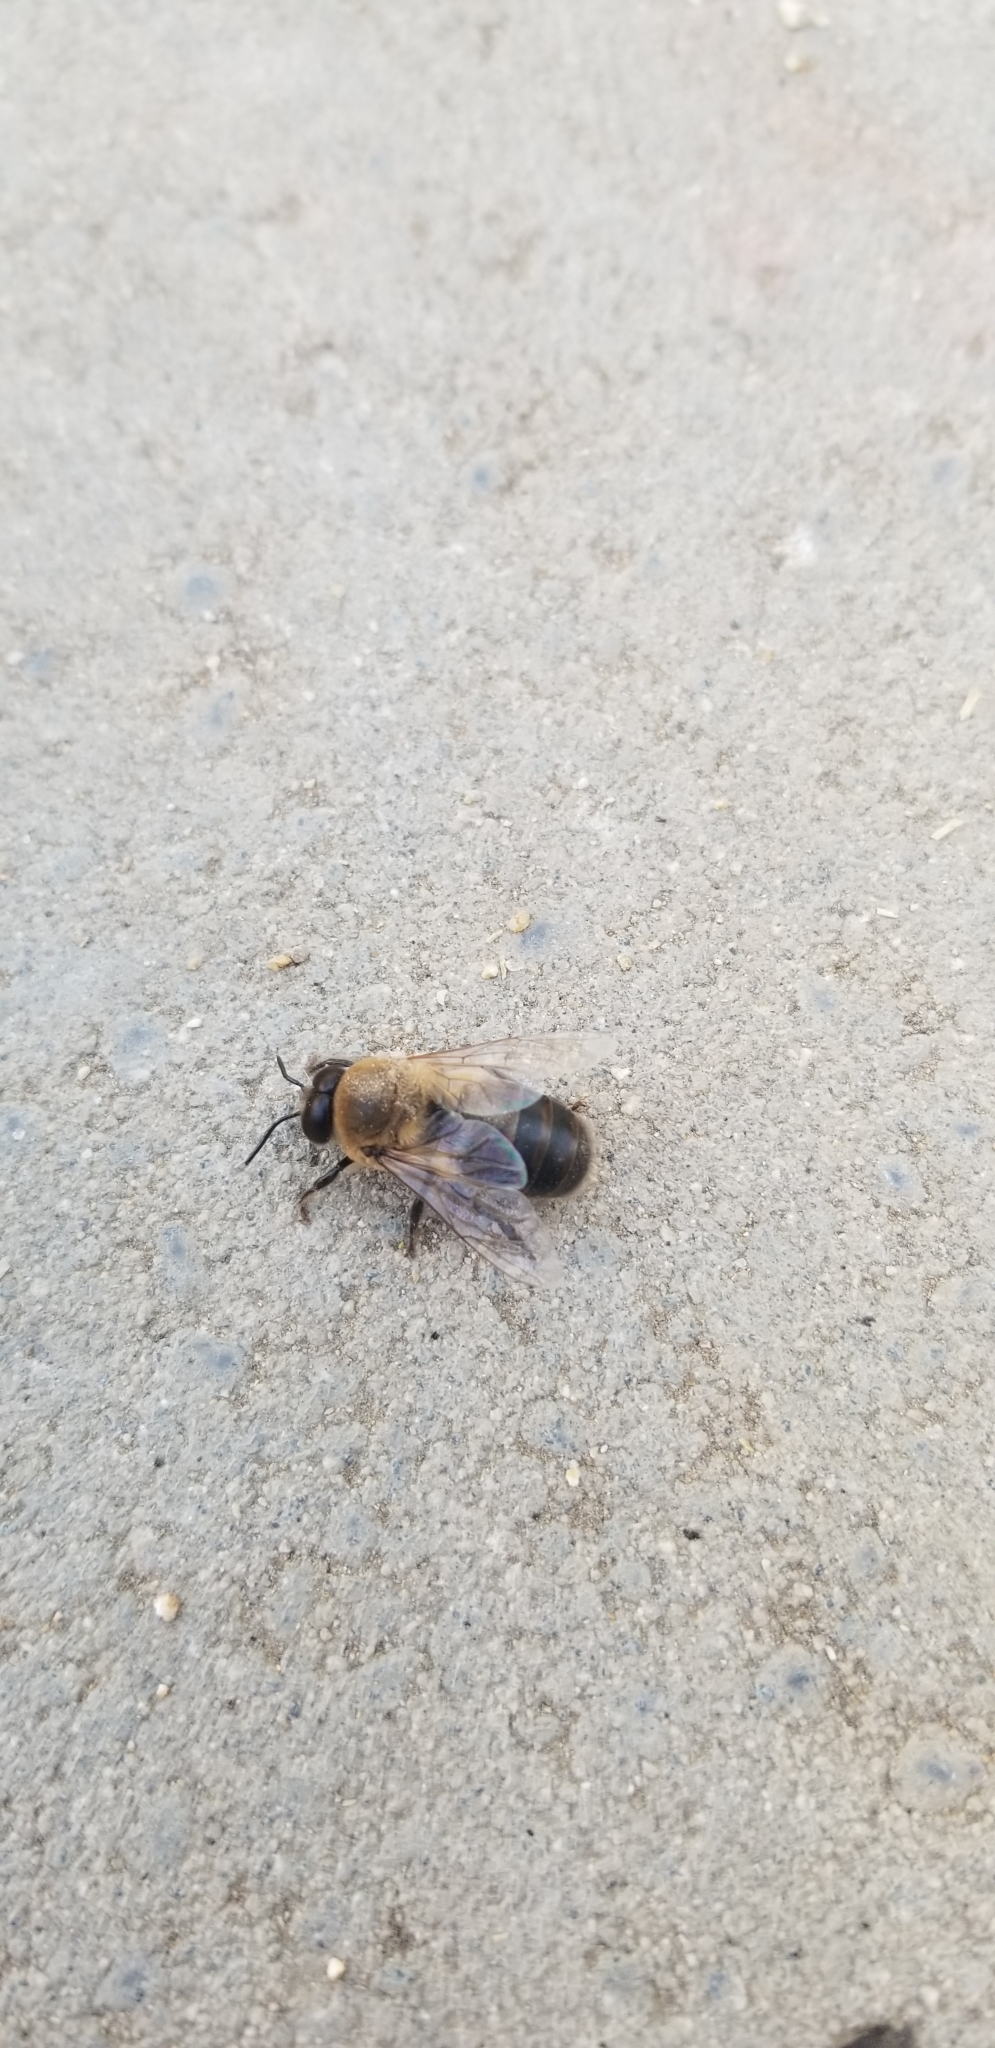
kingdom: Animalia
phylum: Arthropoda
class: Insecta
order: Hymenoptera
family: Apidae
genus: Apis
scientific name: Apis mellifera
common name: Honey bee
